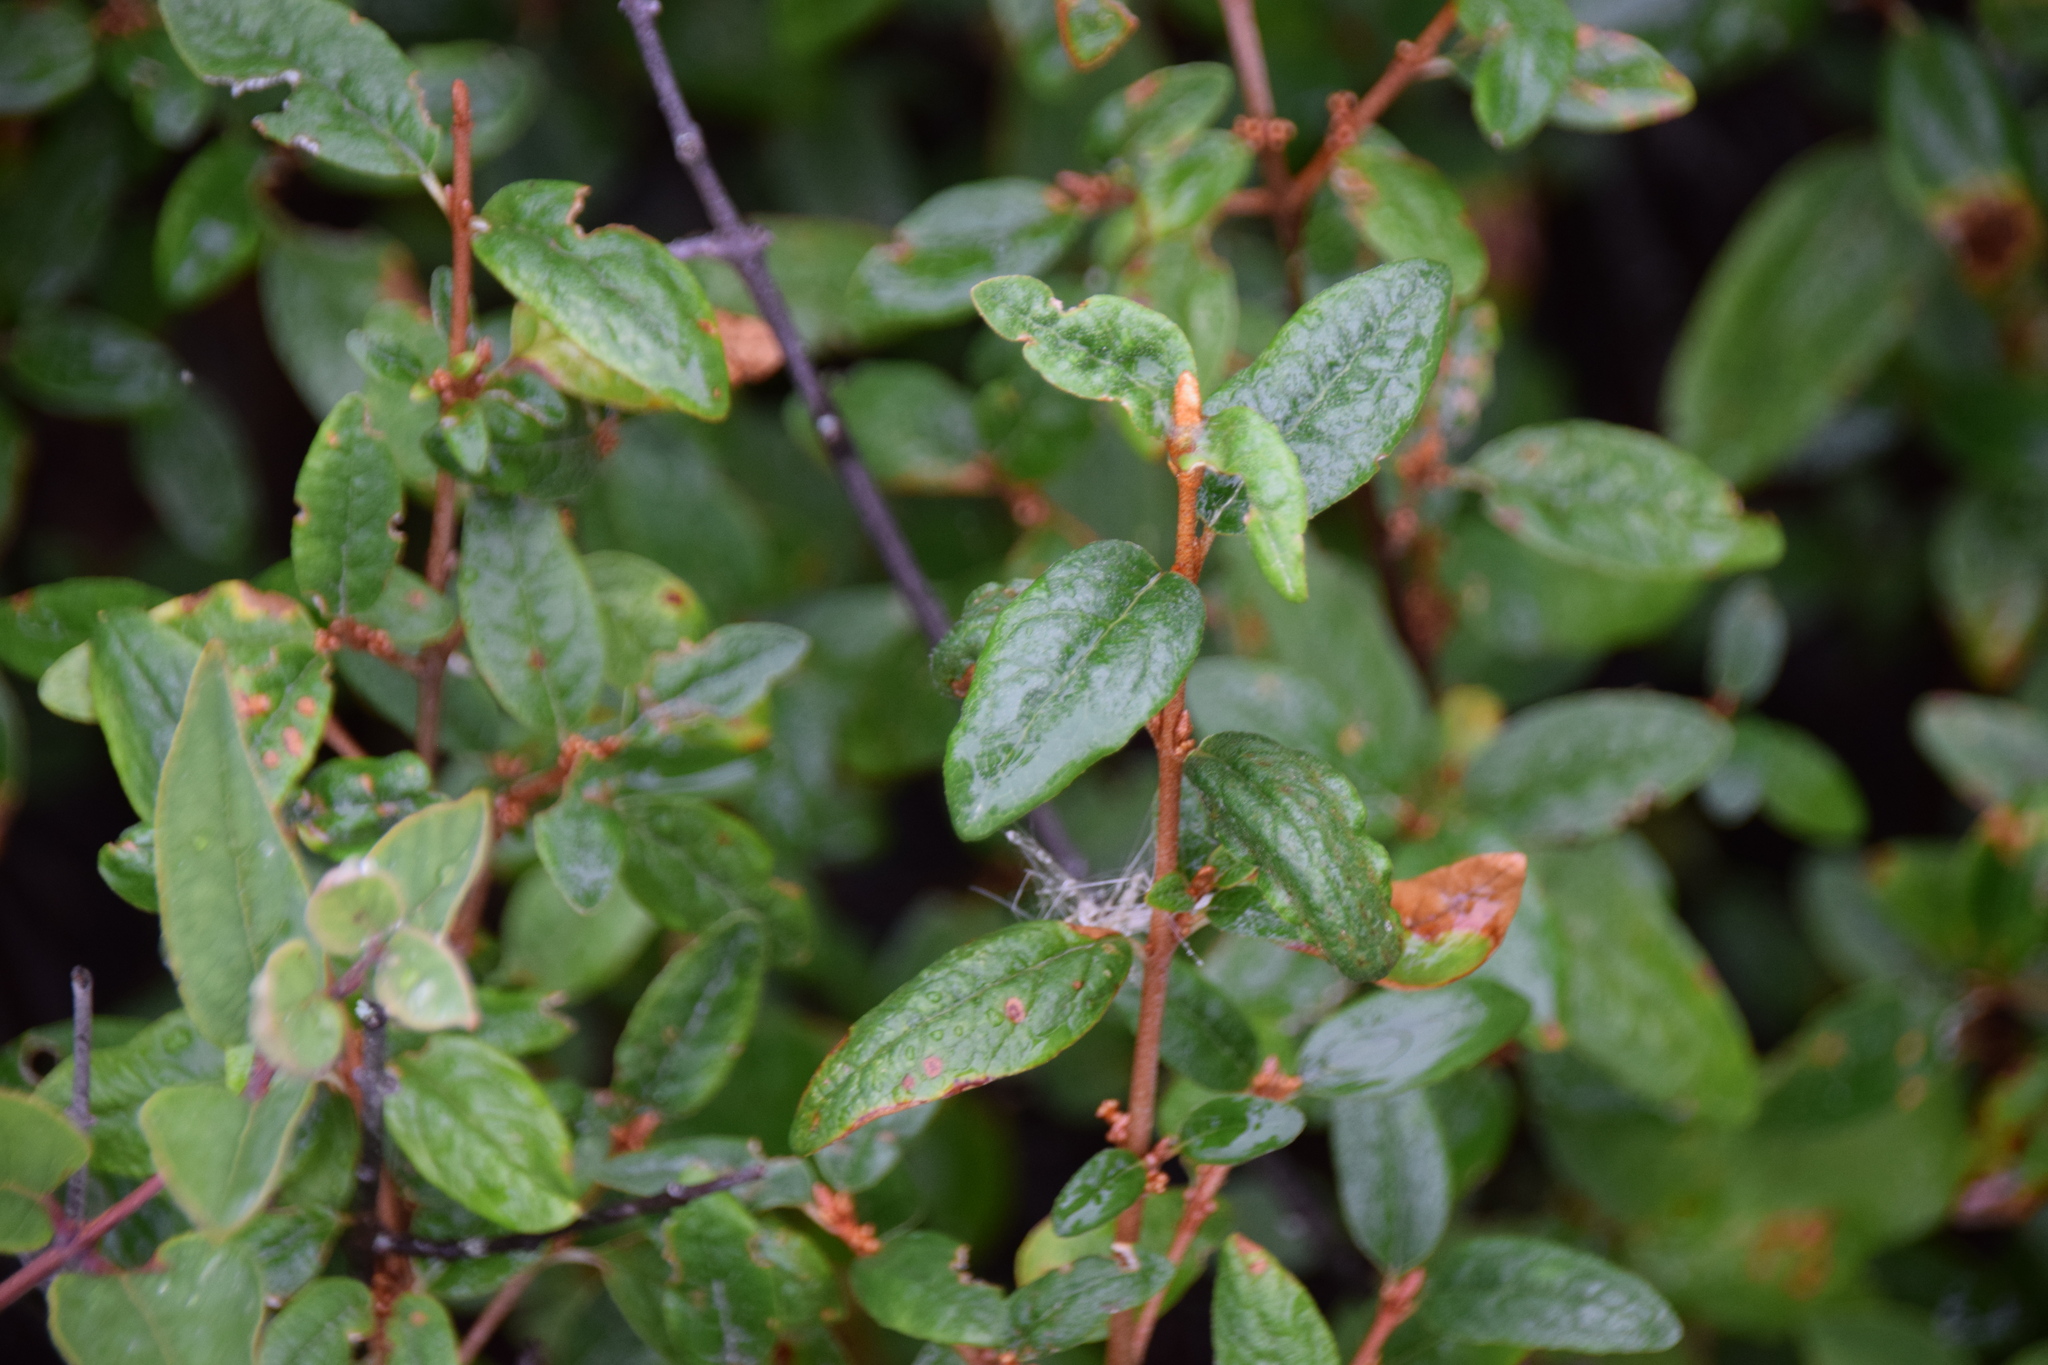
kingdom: Plantae
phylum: Tracheophyta
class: Magnoliopsida
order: Rosales
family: Elaeagnaceae
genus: Shepherdia
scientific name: Shepherdia canadensis
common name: Soapberry
